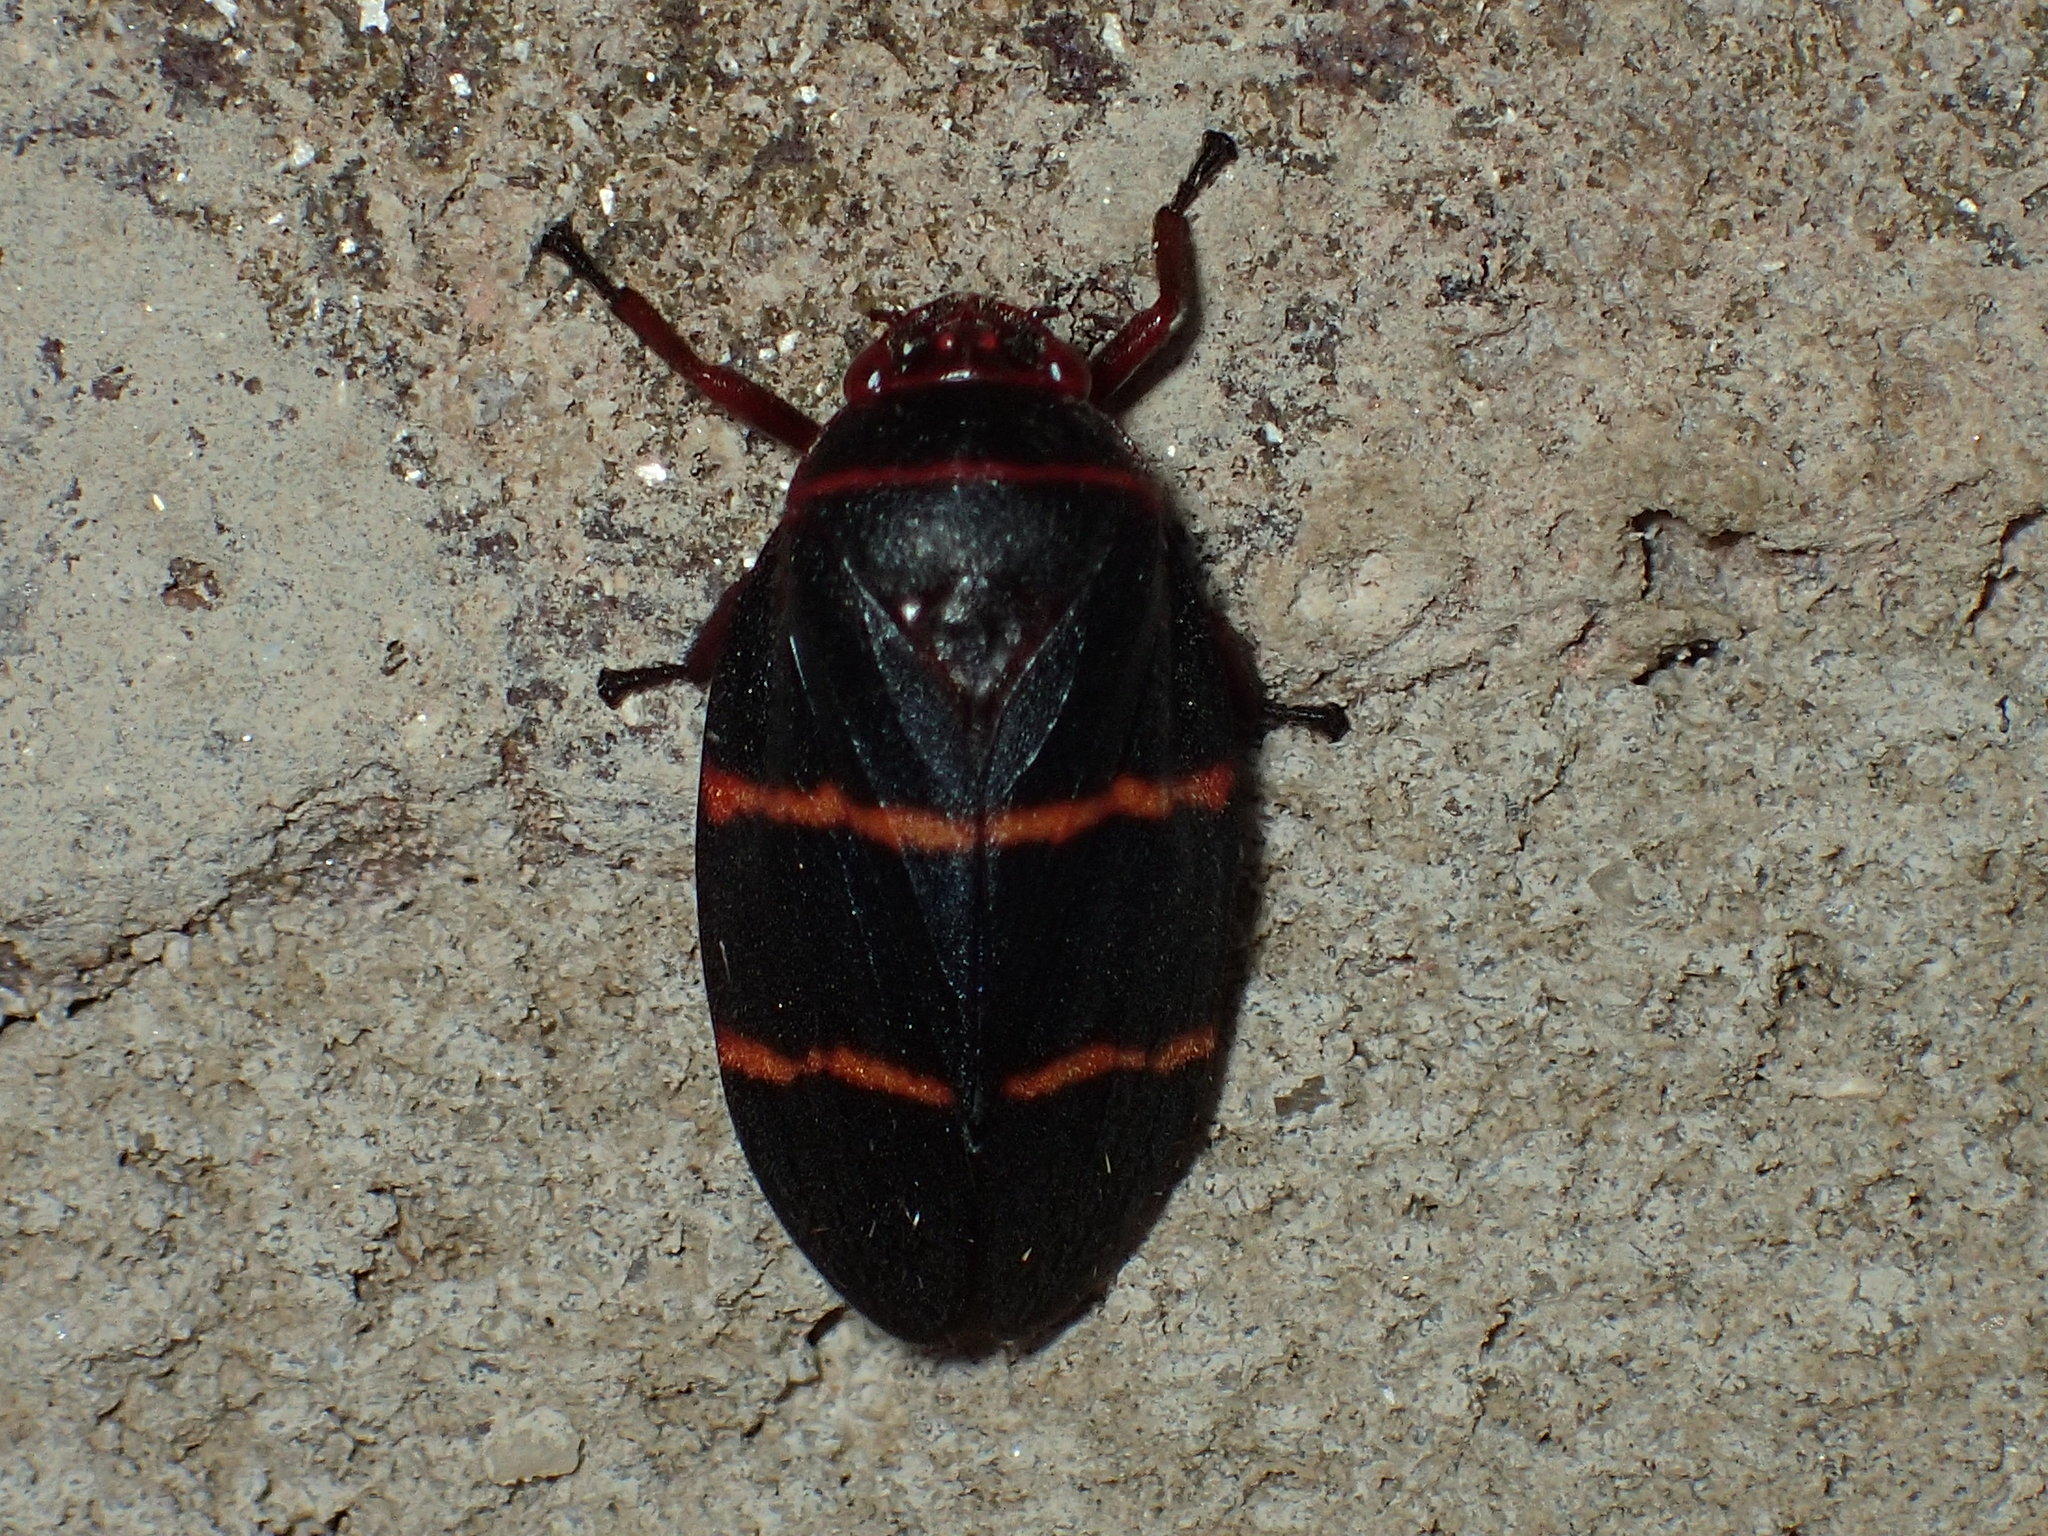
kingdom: Animalia
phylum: Arthropoda
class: Insecta
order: Hemiptera
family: Cercopidae
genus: Prosapia
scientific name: Prosapia bicincta
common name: Twolined spittlebug
